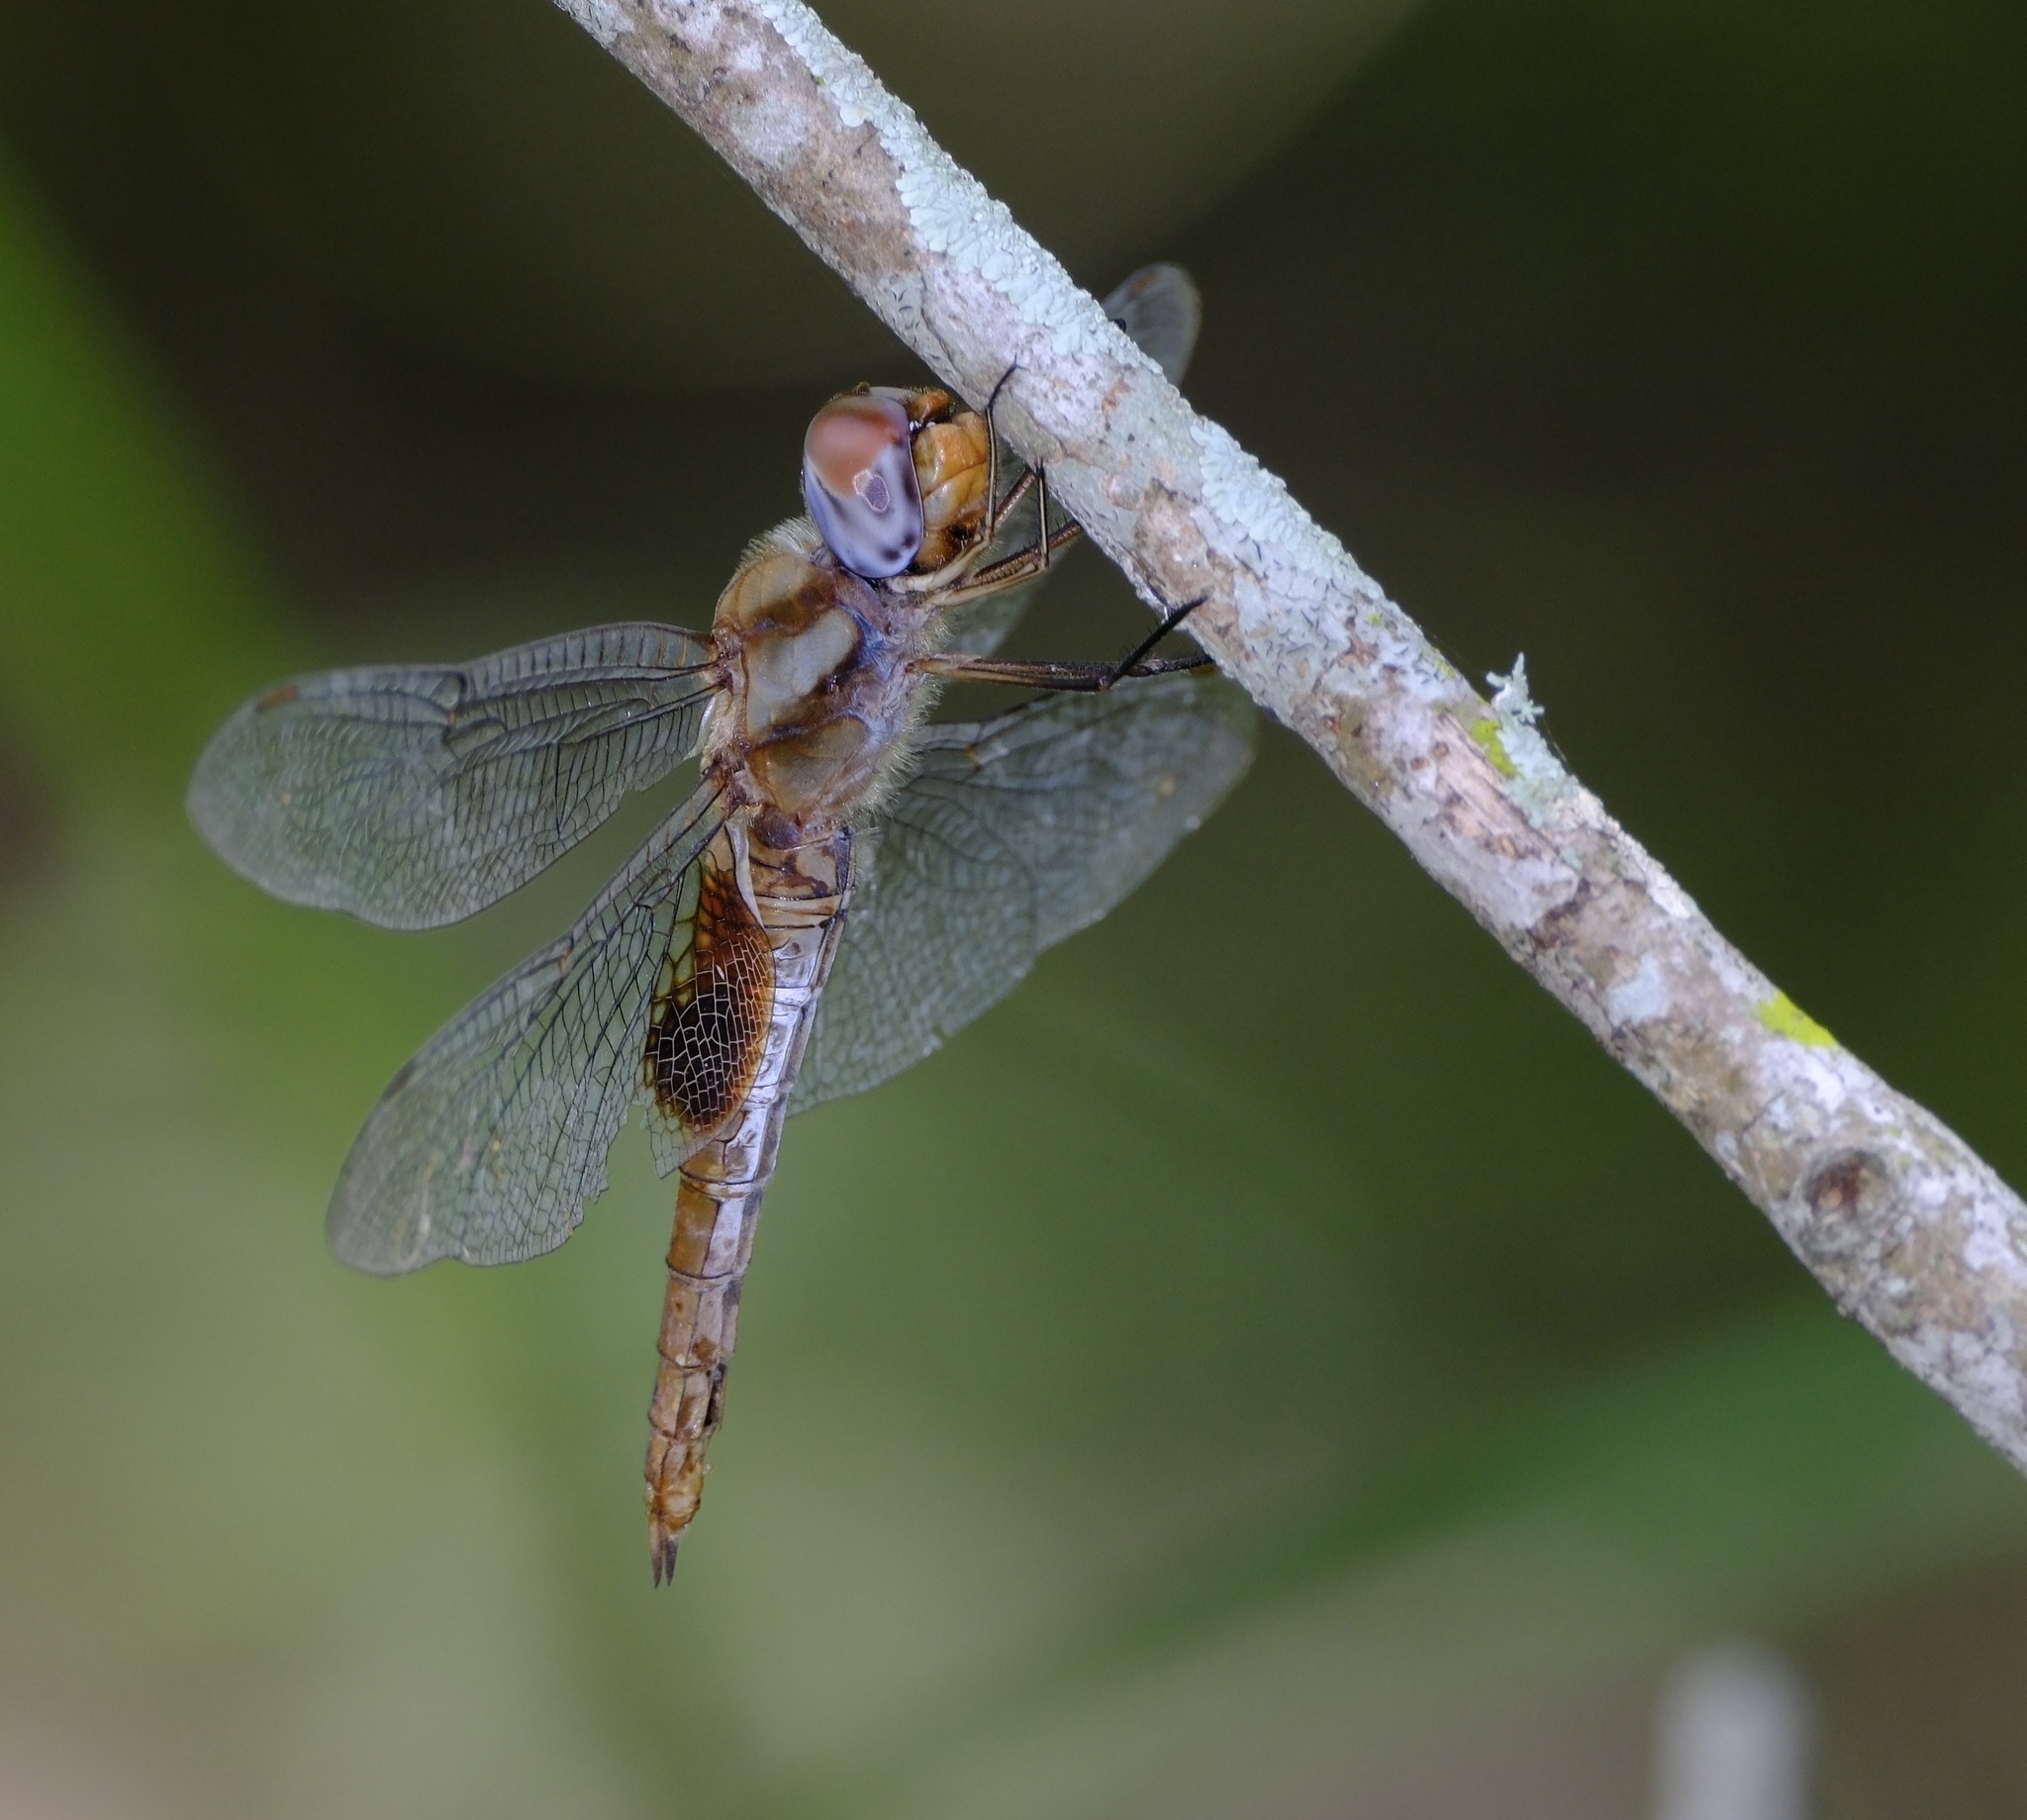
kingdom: Animalia
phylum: Arthropoda
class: Insecta
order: Odonata
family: Libellulidae
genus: Pantala
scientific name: Pantala hymenaea
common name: Spot-winged glider
